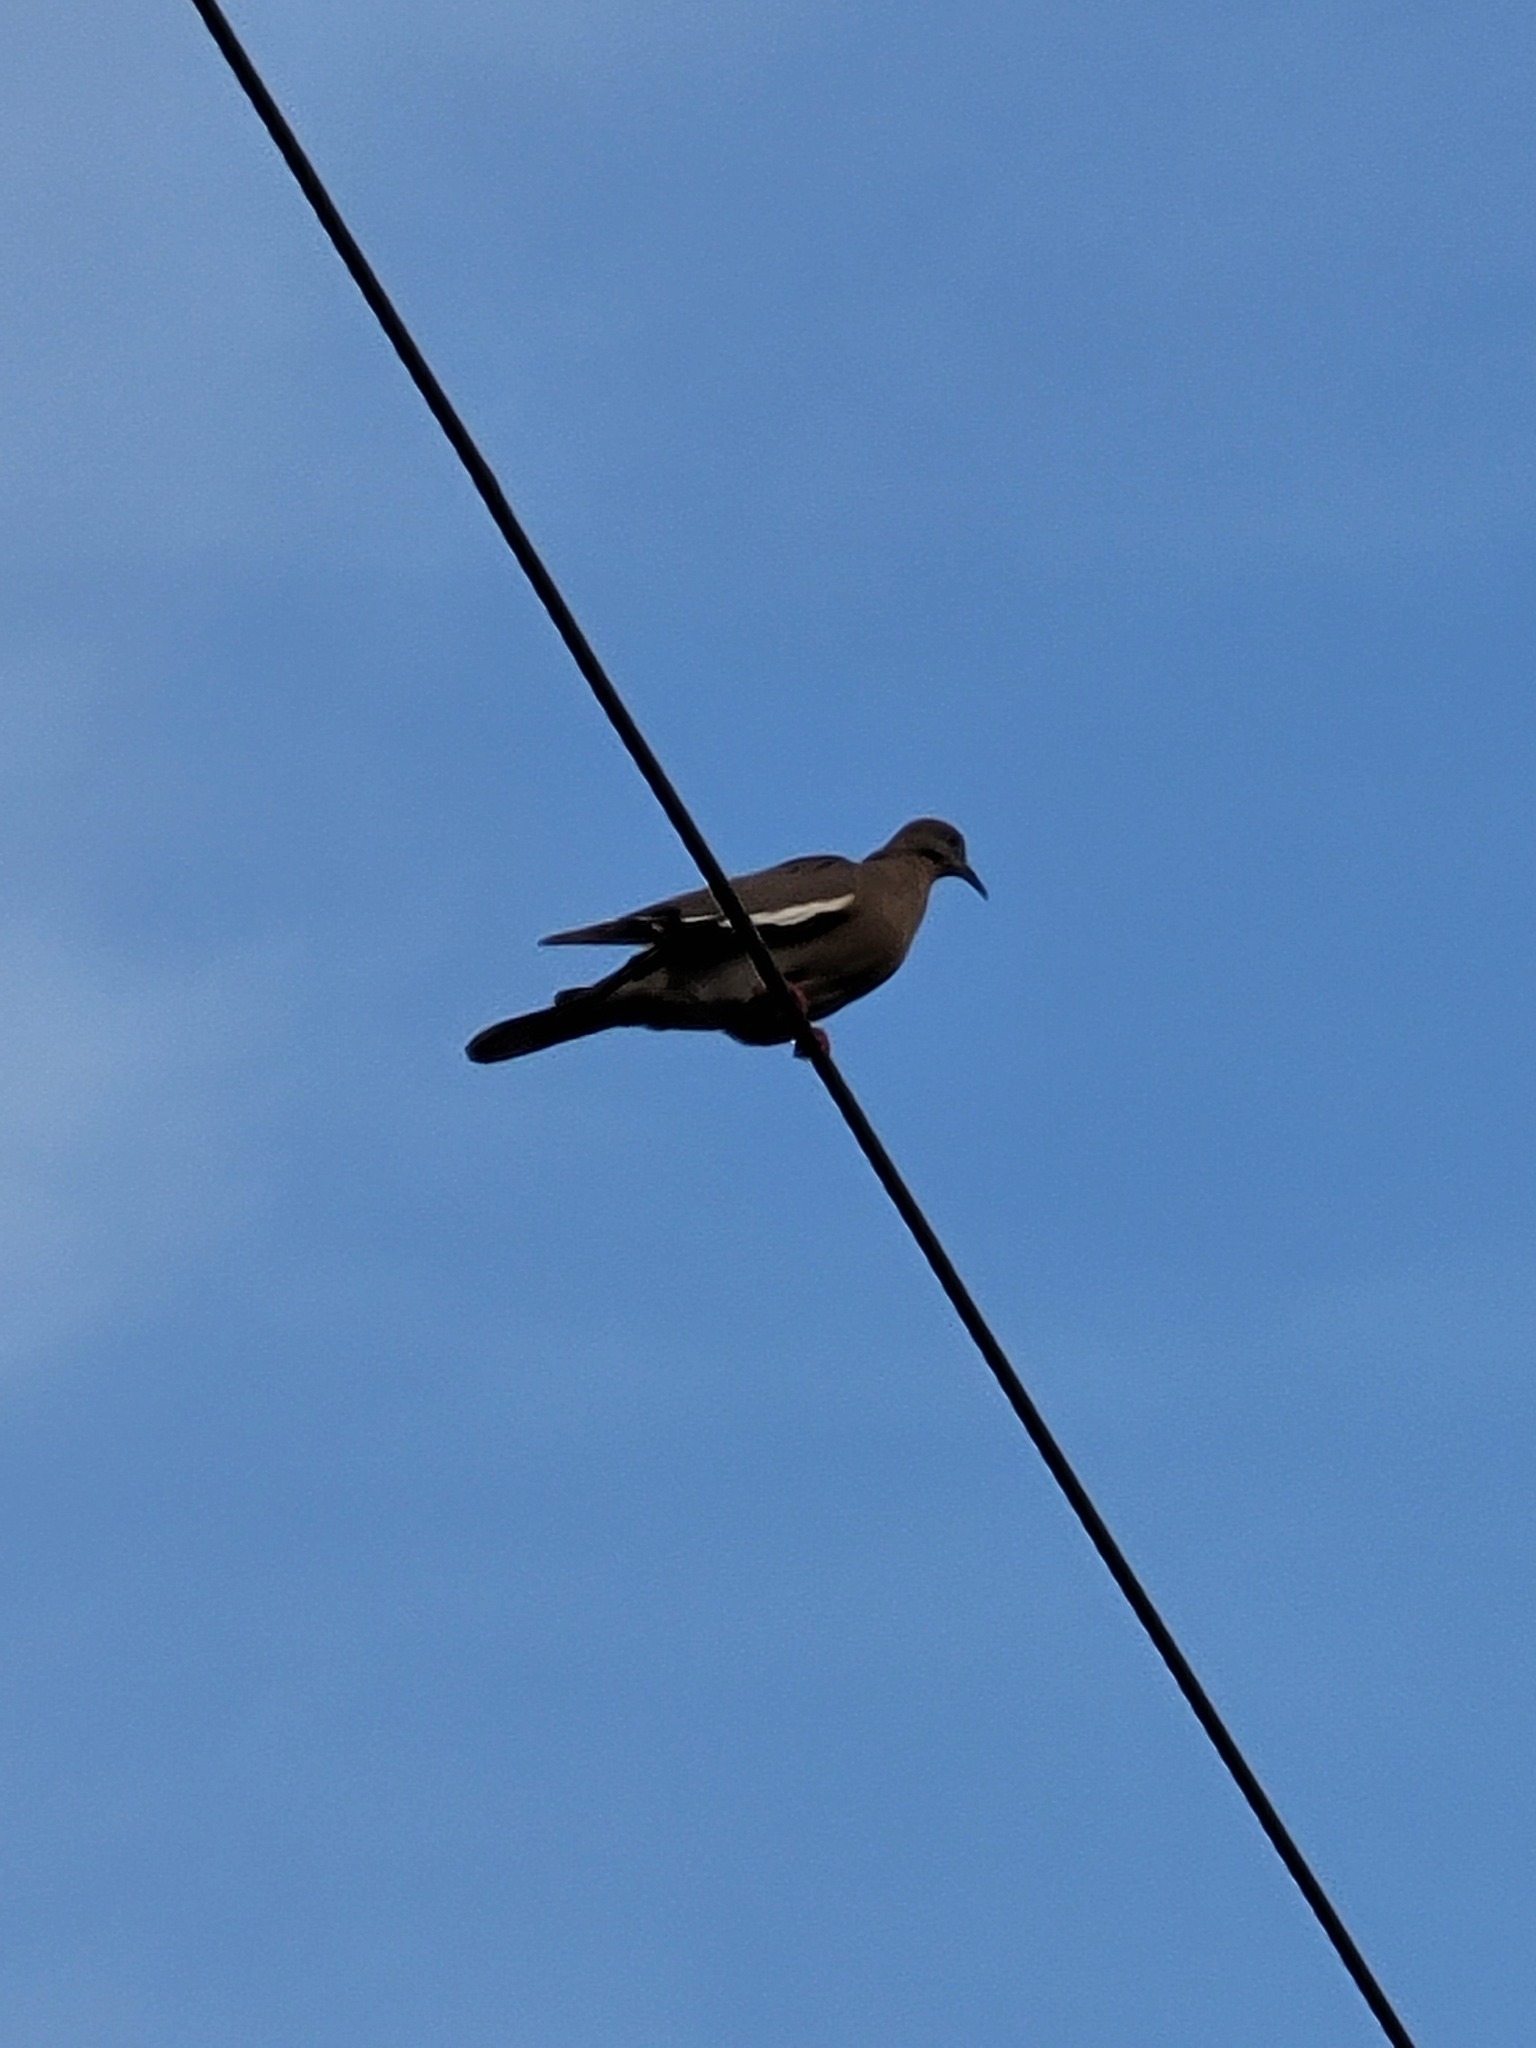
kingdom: Animalia
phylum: Chordata
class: Aves
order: Columbiformes
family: Columbidae
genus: Zenaida
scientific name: Zenaida asiatica
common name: White-winged dove
